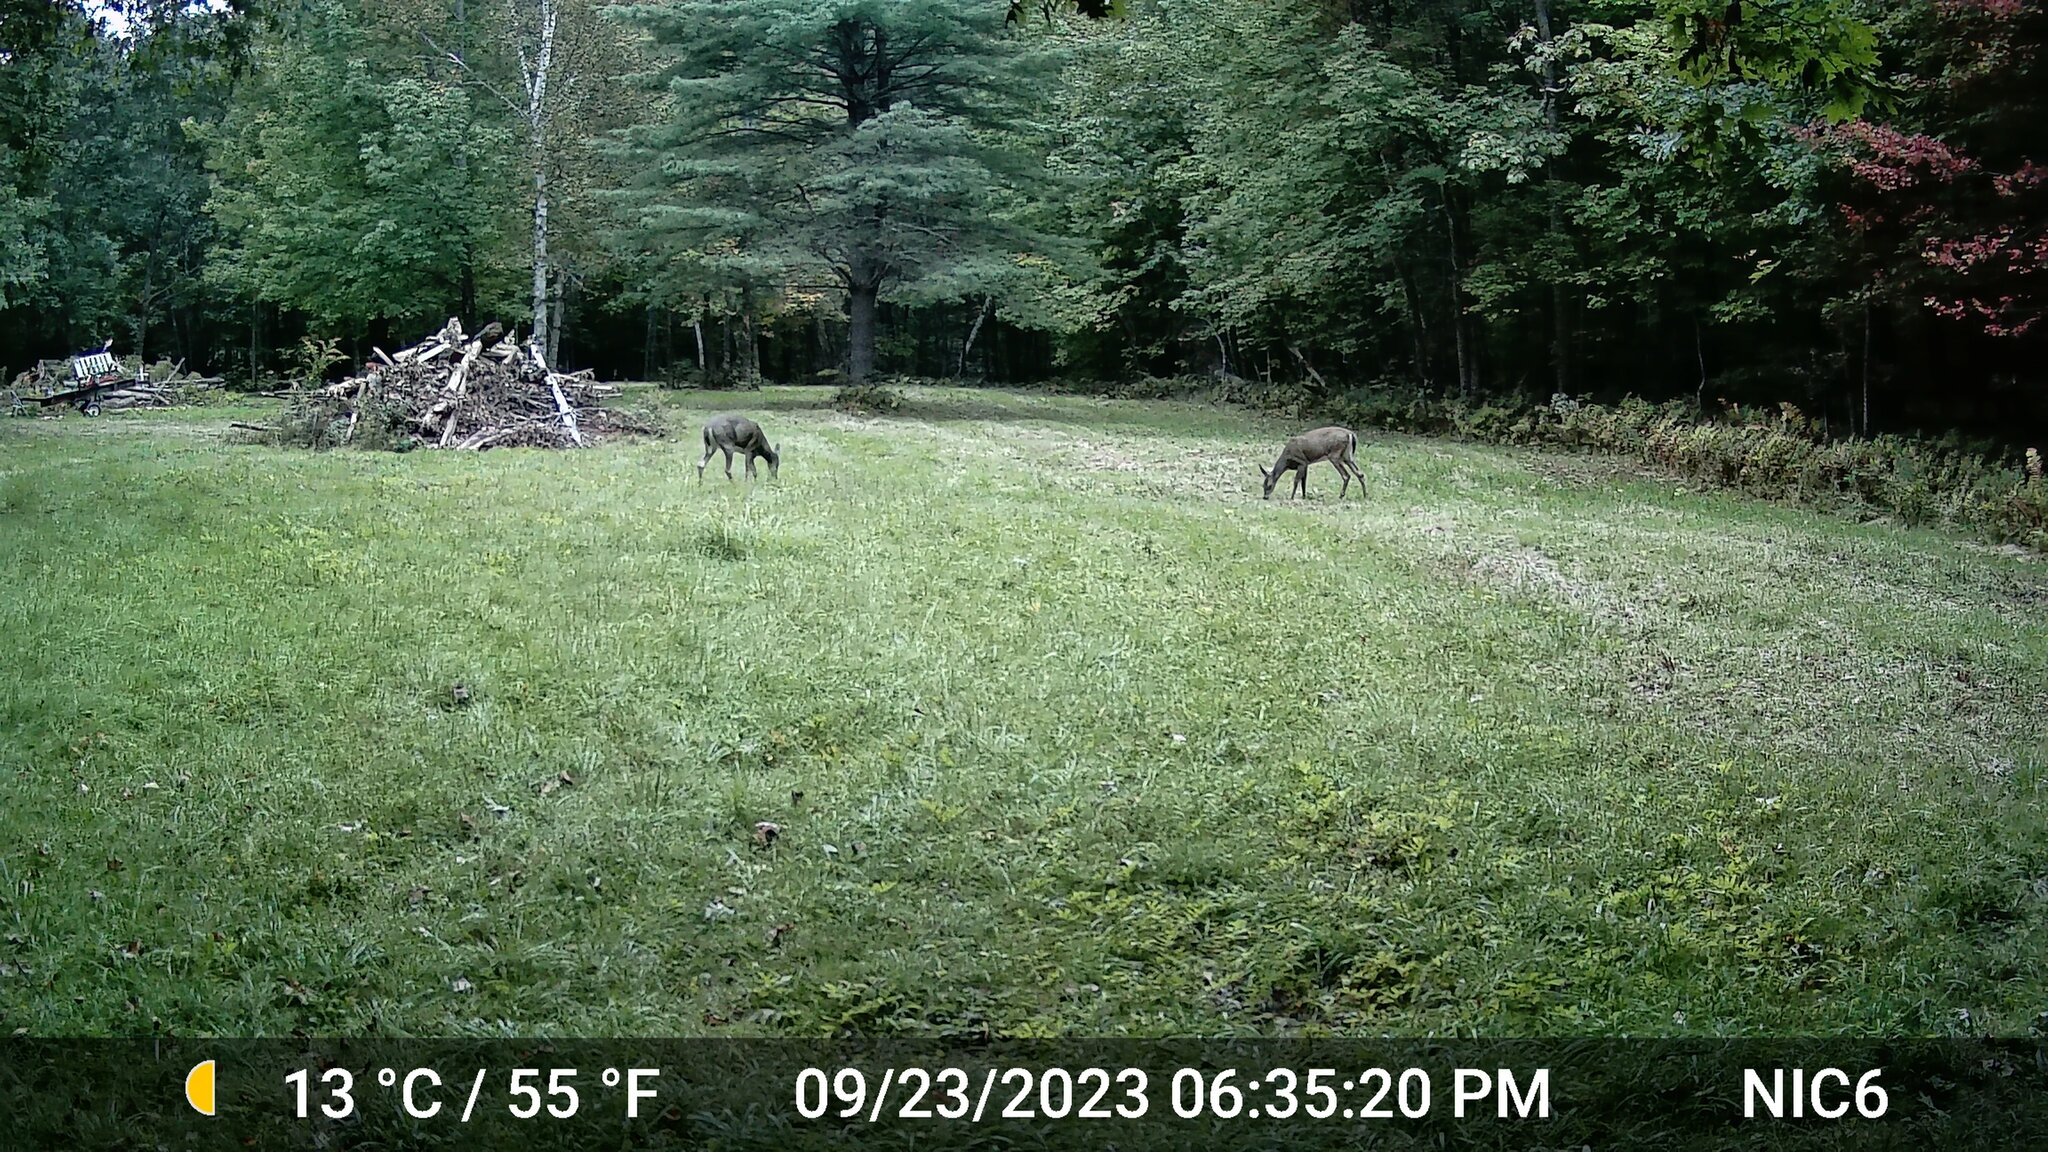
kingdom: Animalia
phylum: Chordata
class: Mammalia
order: Artiodactyla
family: Cervidae
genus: Odocoileus
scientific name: Odocoileus virginianus
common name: White-tailed deer
